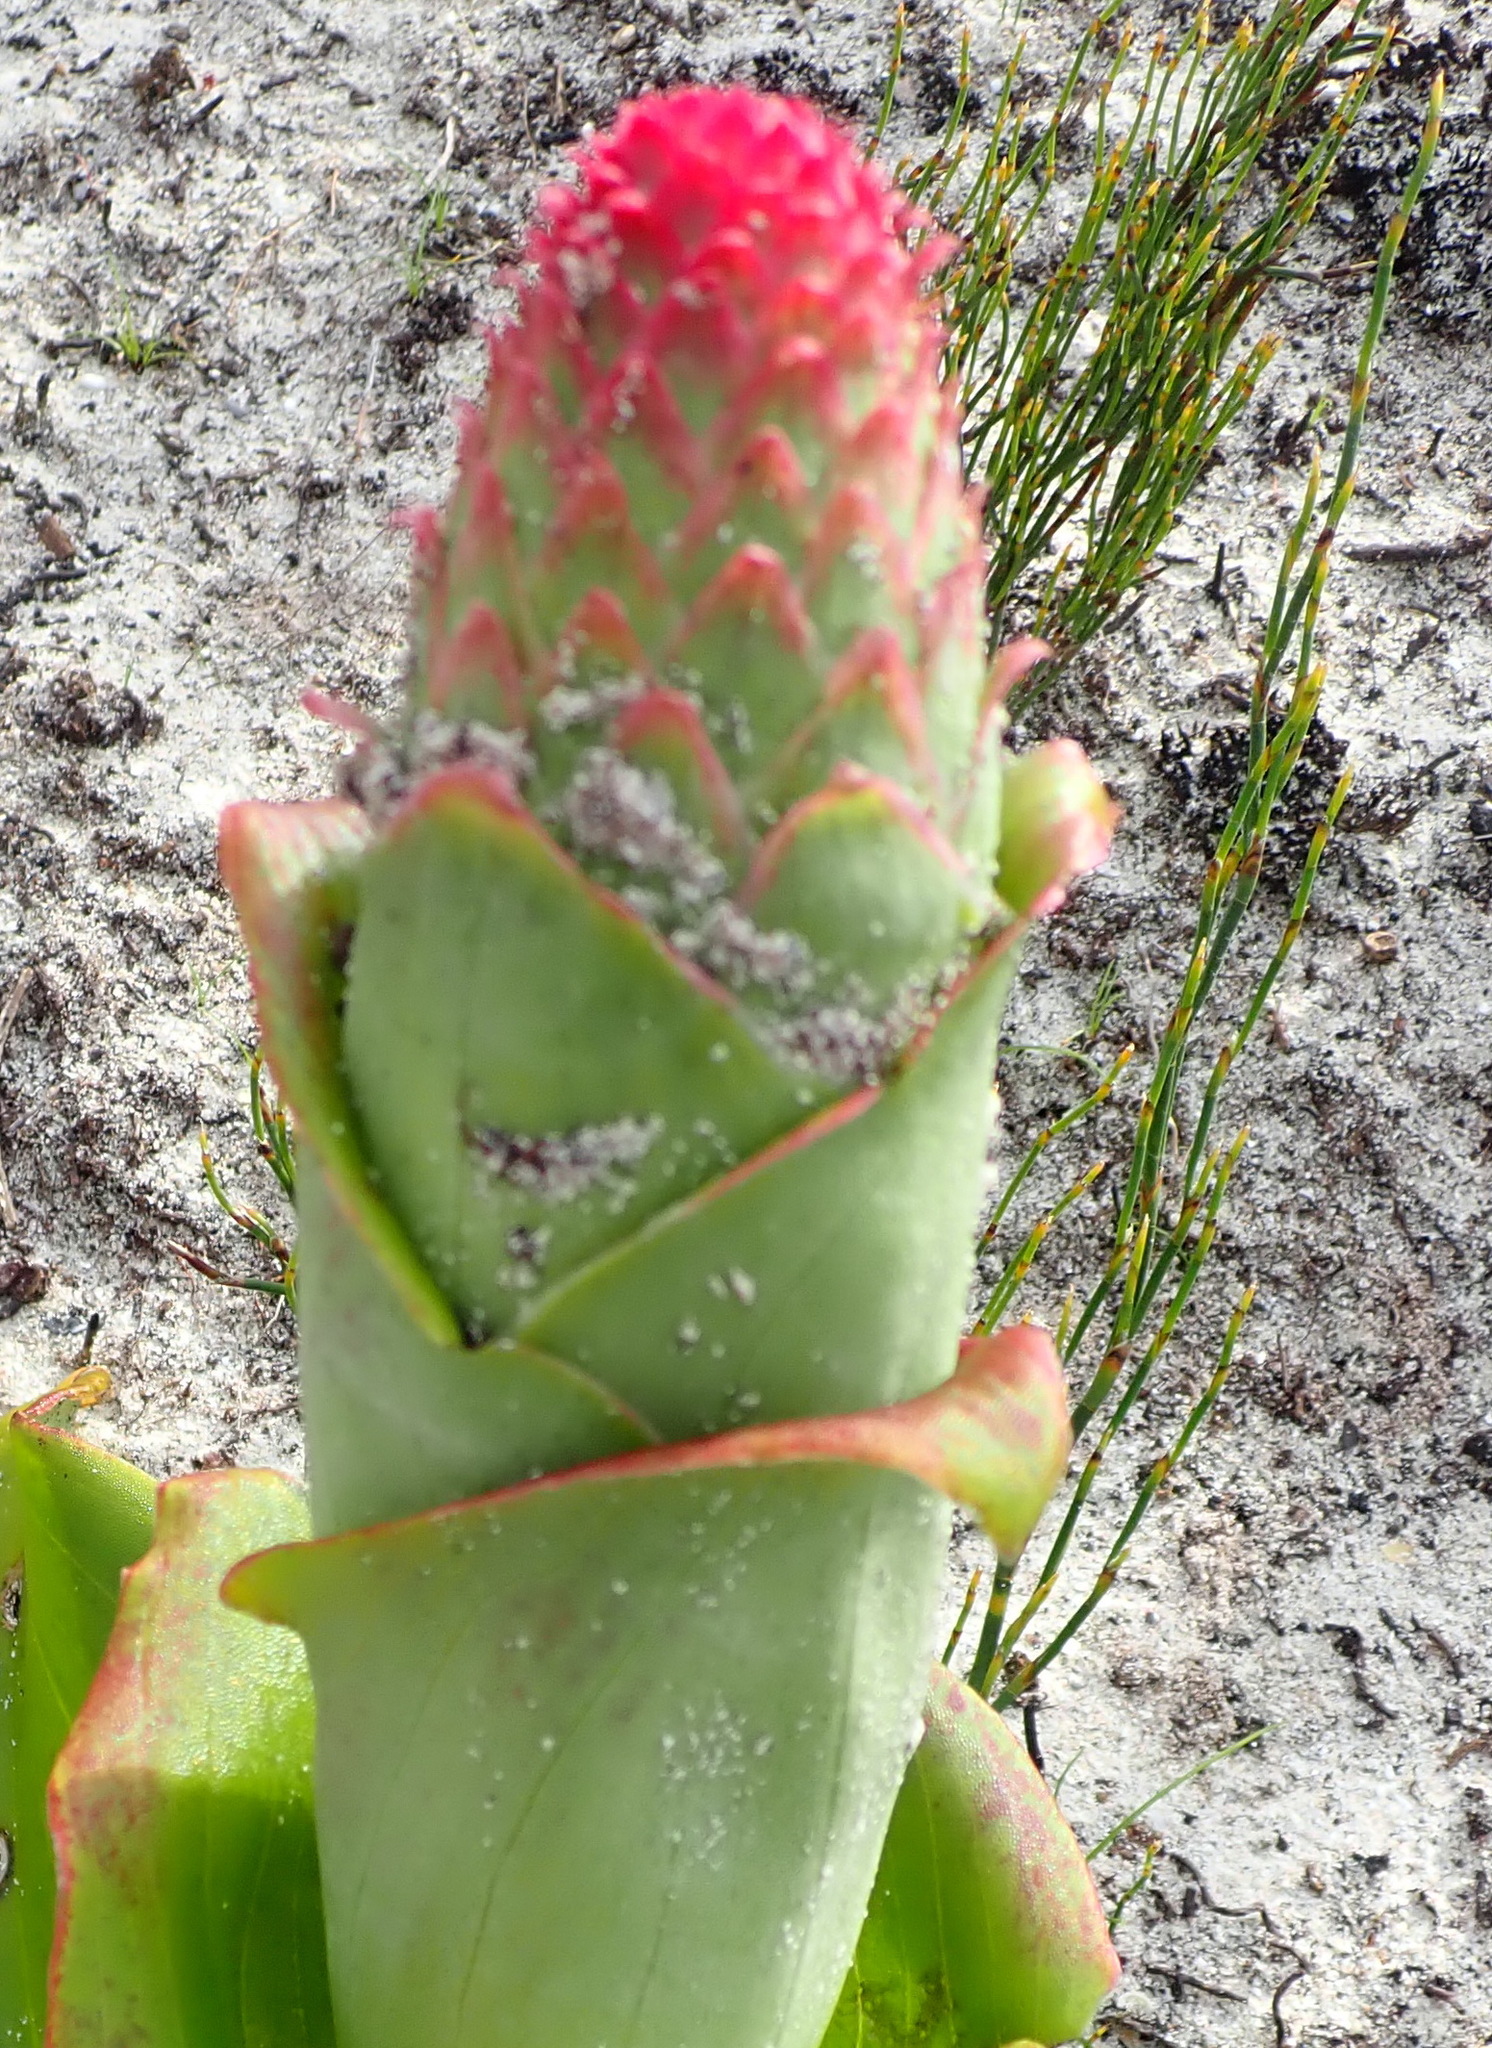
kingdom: Plantae
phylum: Tracheophyta
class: Liliopsida
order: Asparagales
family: Orchidaceae
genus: Satyrium
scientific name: Satyrium carneum
